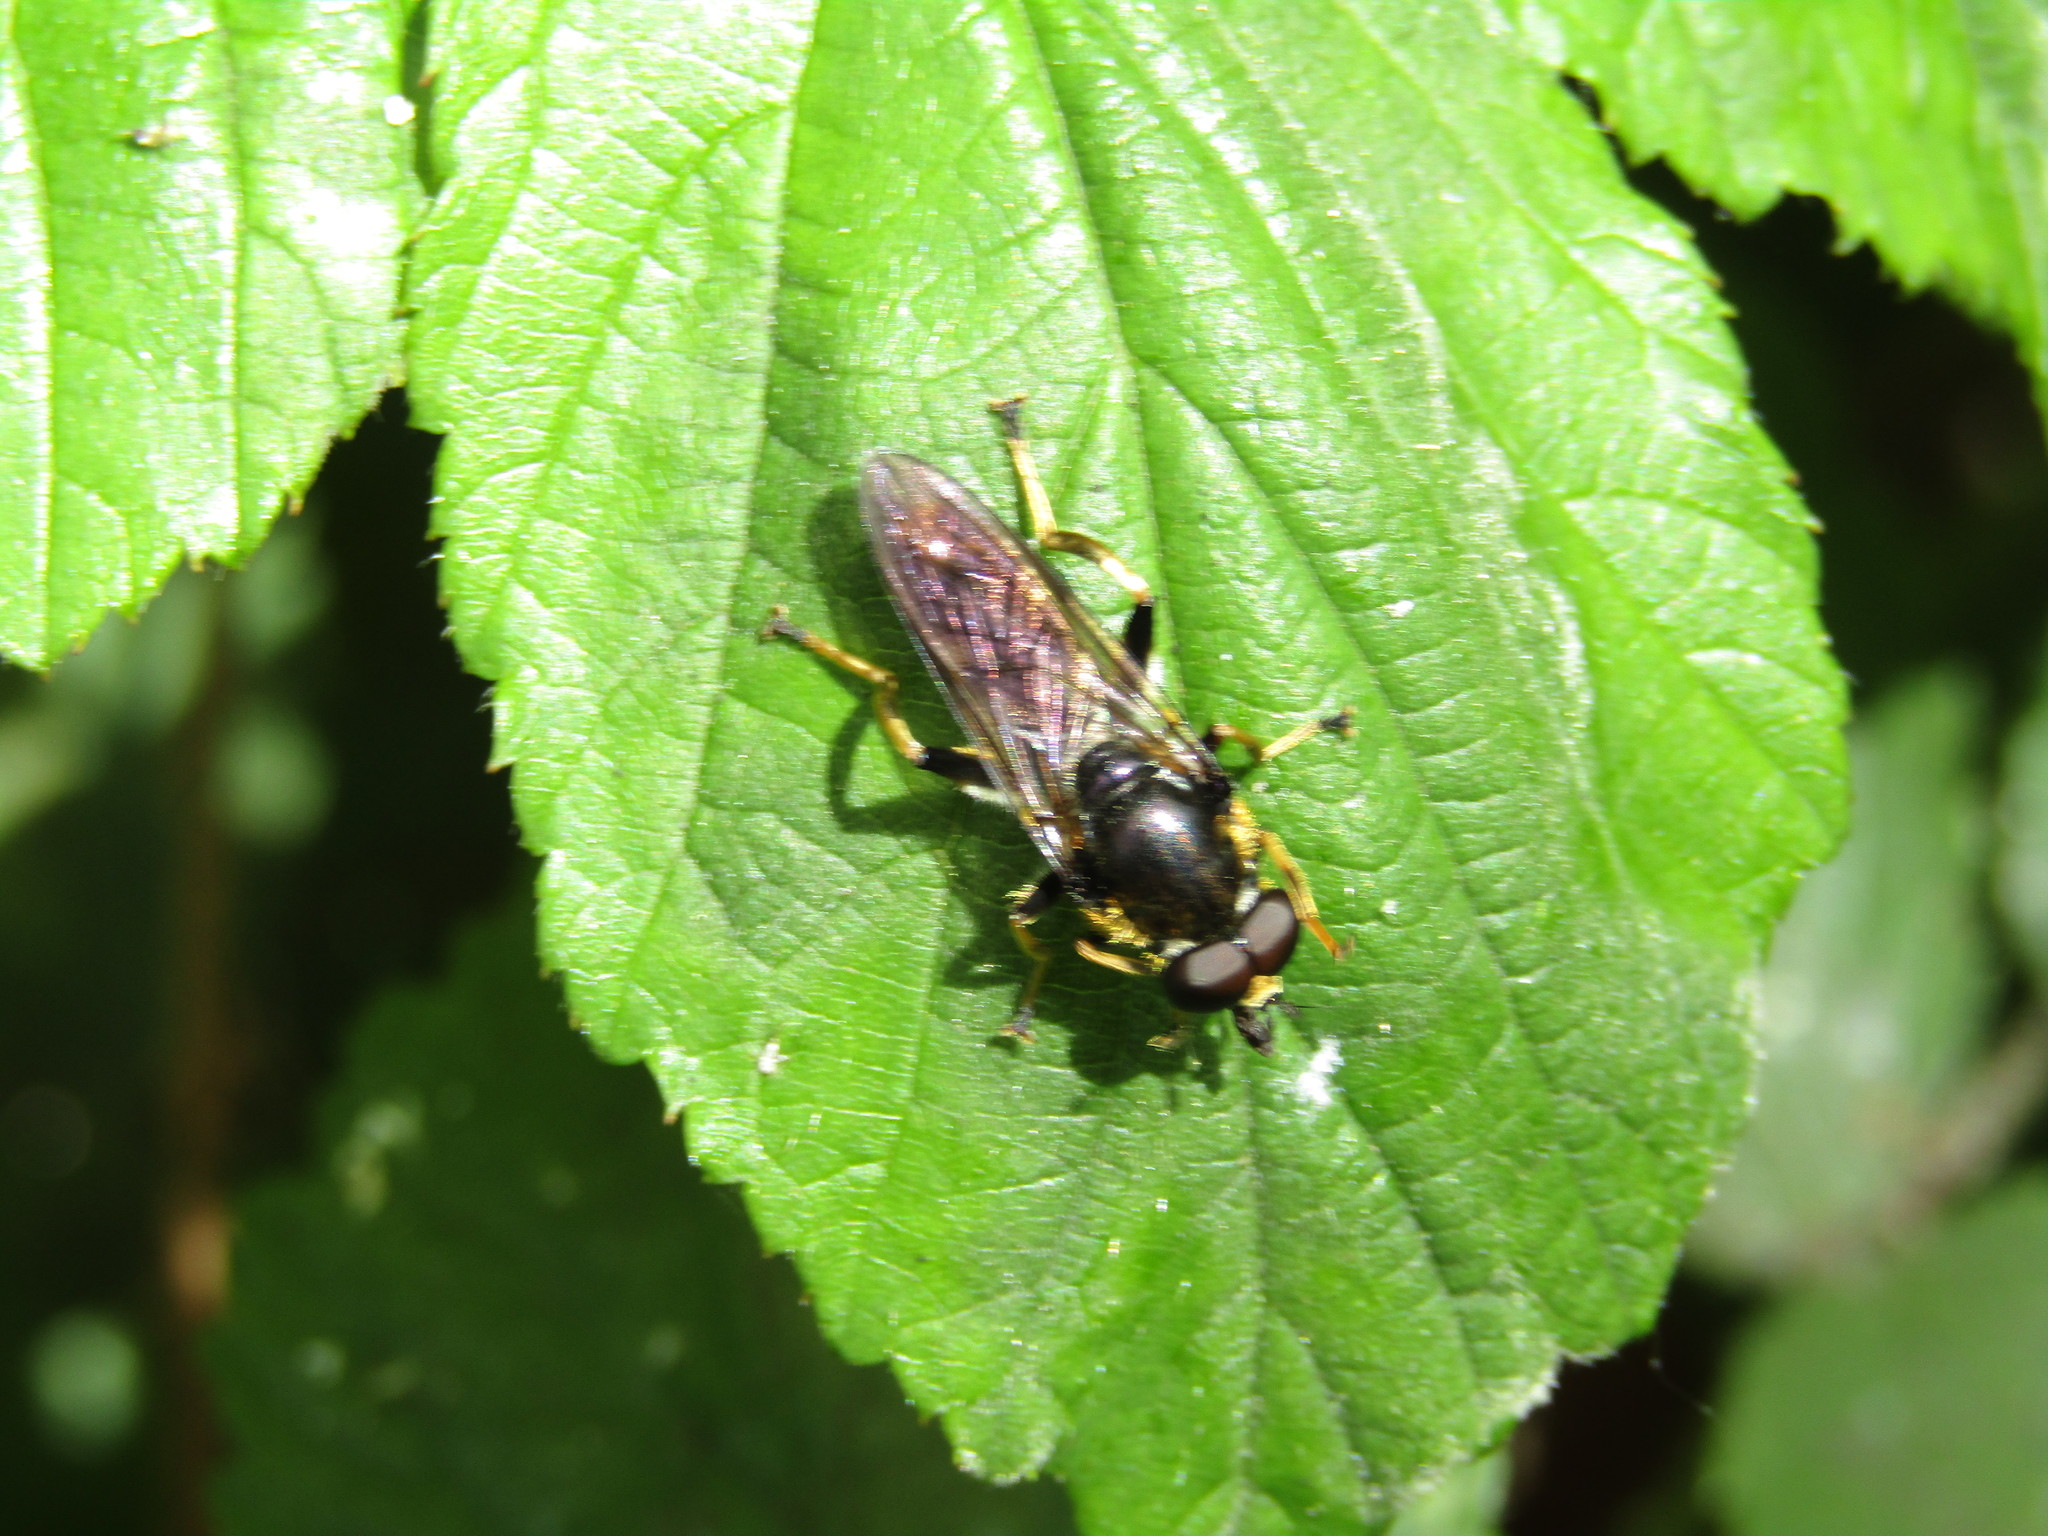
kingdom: Animalia
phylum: Arthropoda
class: Insecta
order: Diptera
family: Syrphidae
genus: Xylota
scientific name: Xylota sylvarum
